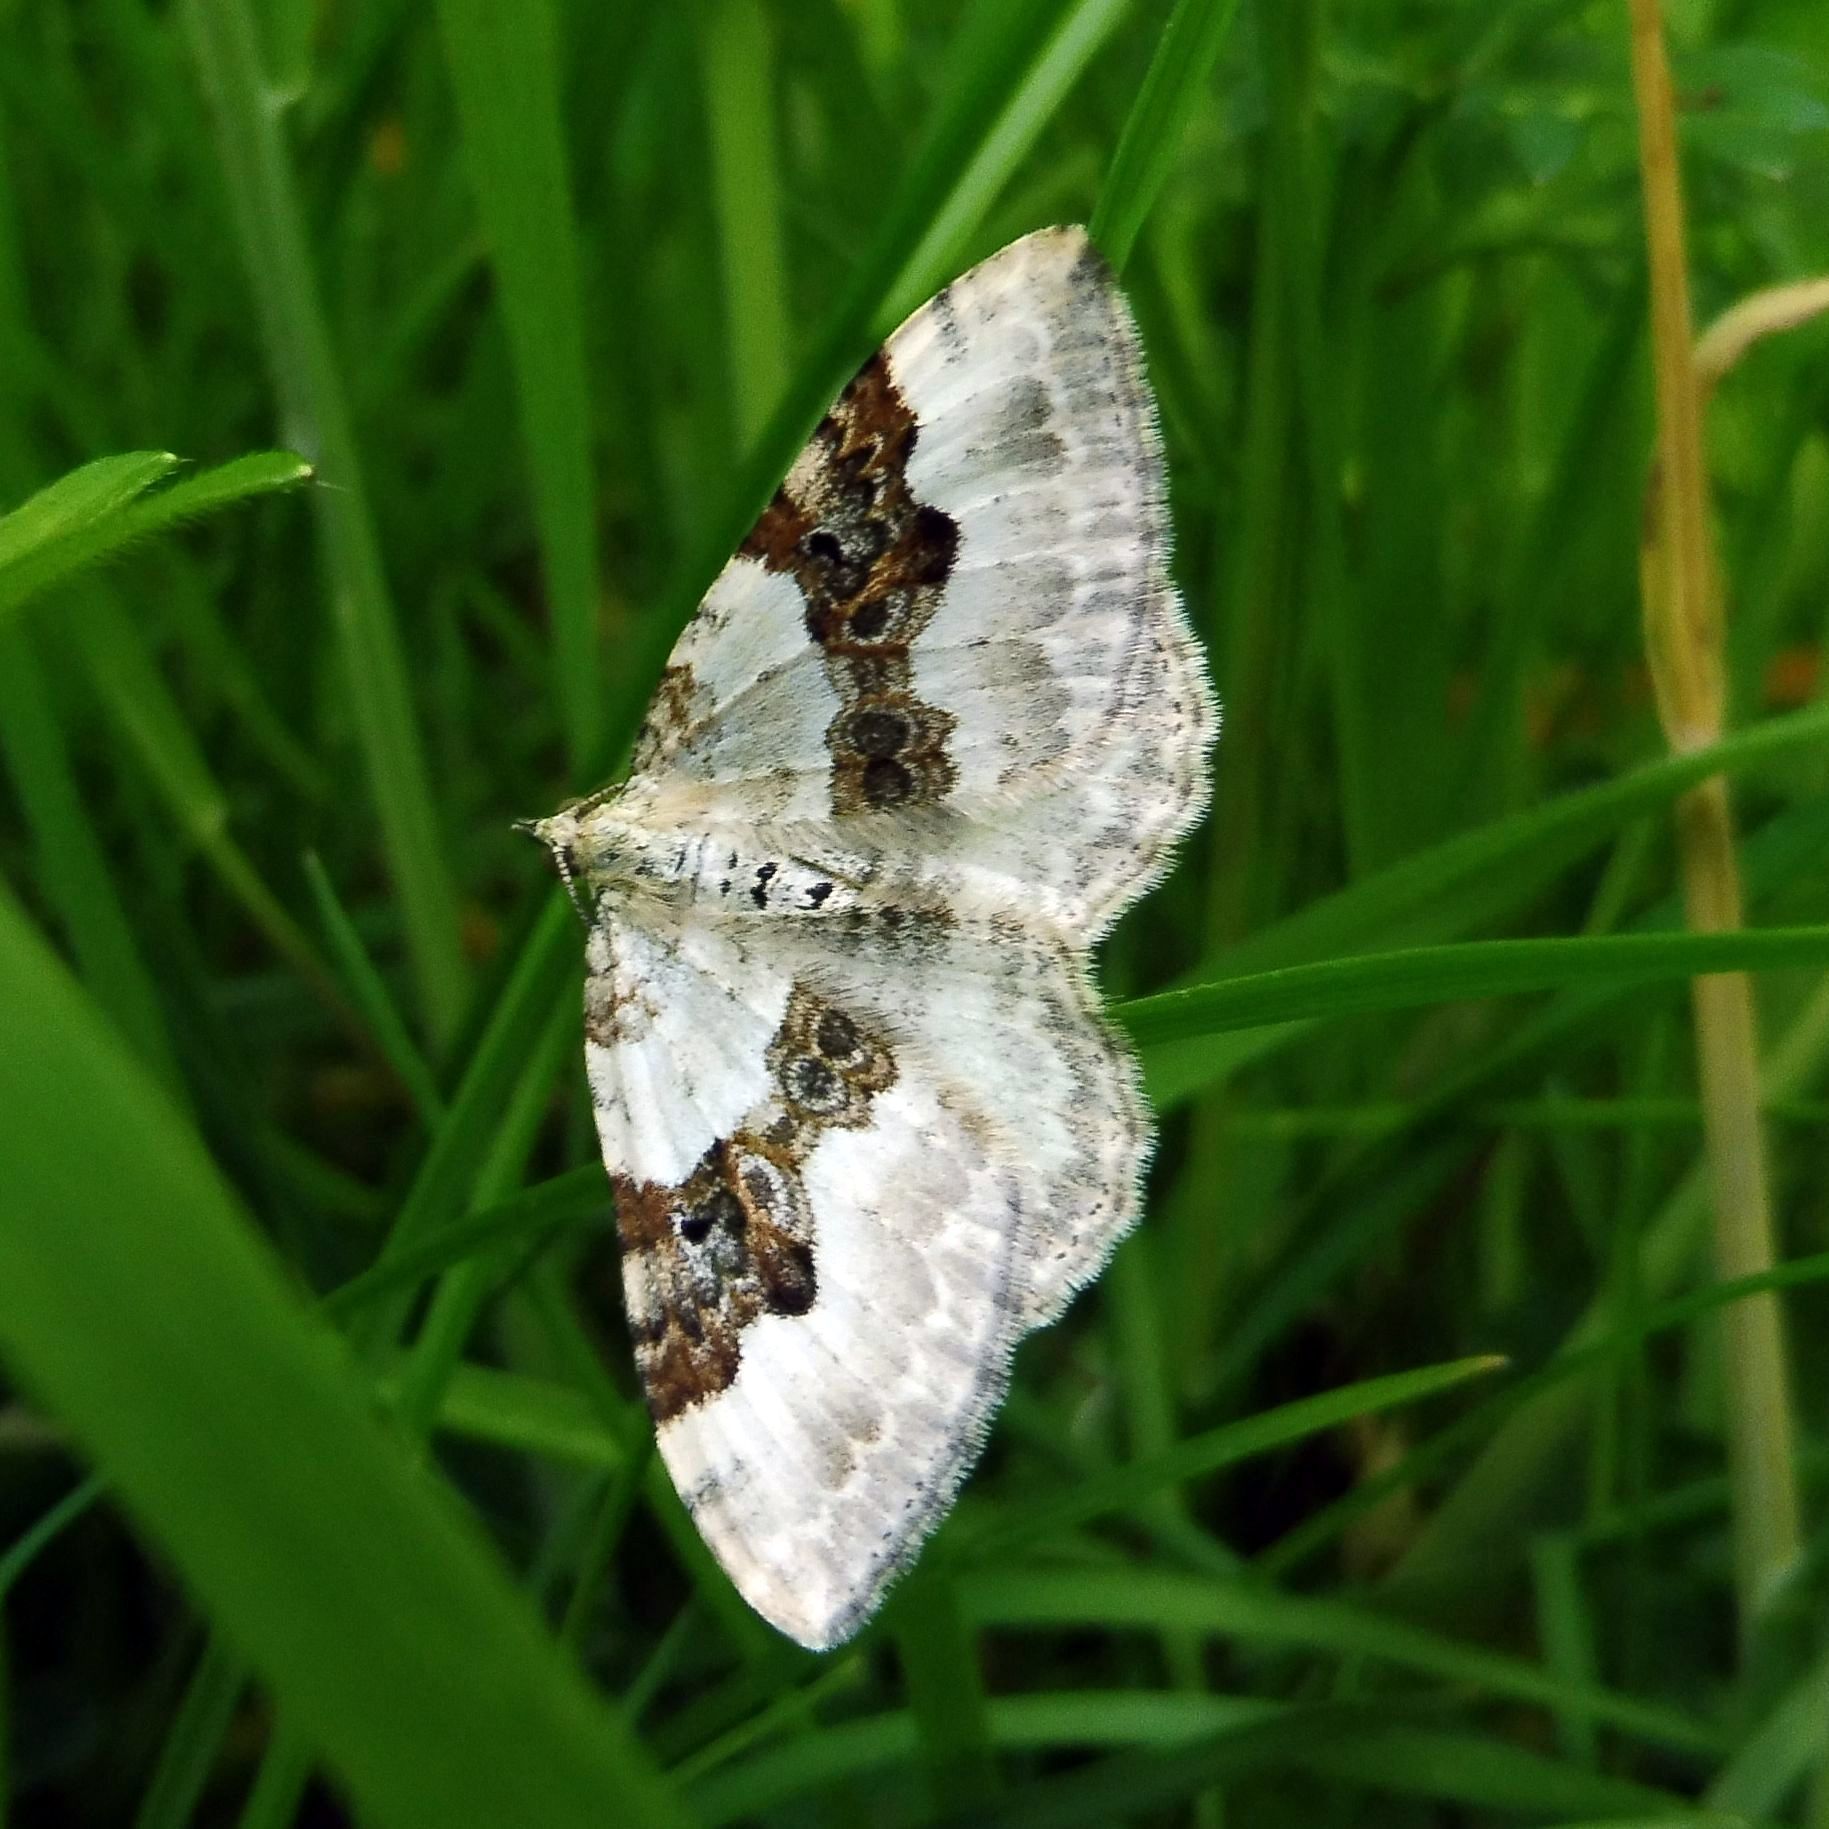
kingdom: Animalia
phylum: Arthropoda
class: Insecta
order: Lepidoptera
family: Geometridae
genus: Xanthorhoe
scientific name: Xanthorhoe montanata
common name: Silver-ground carpet
